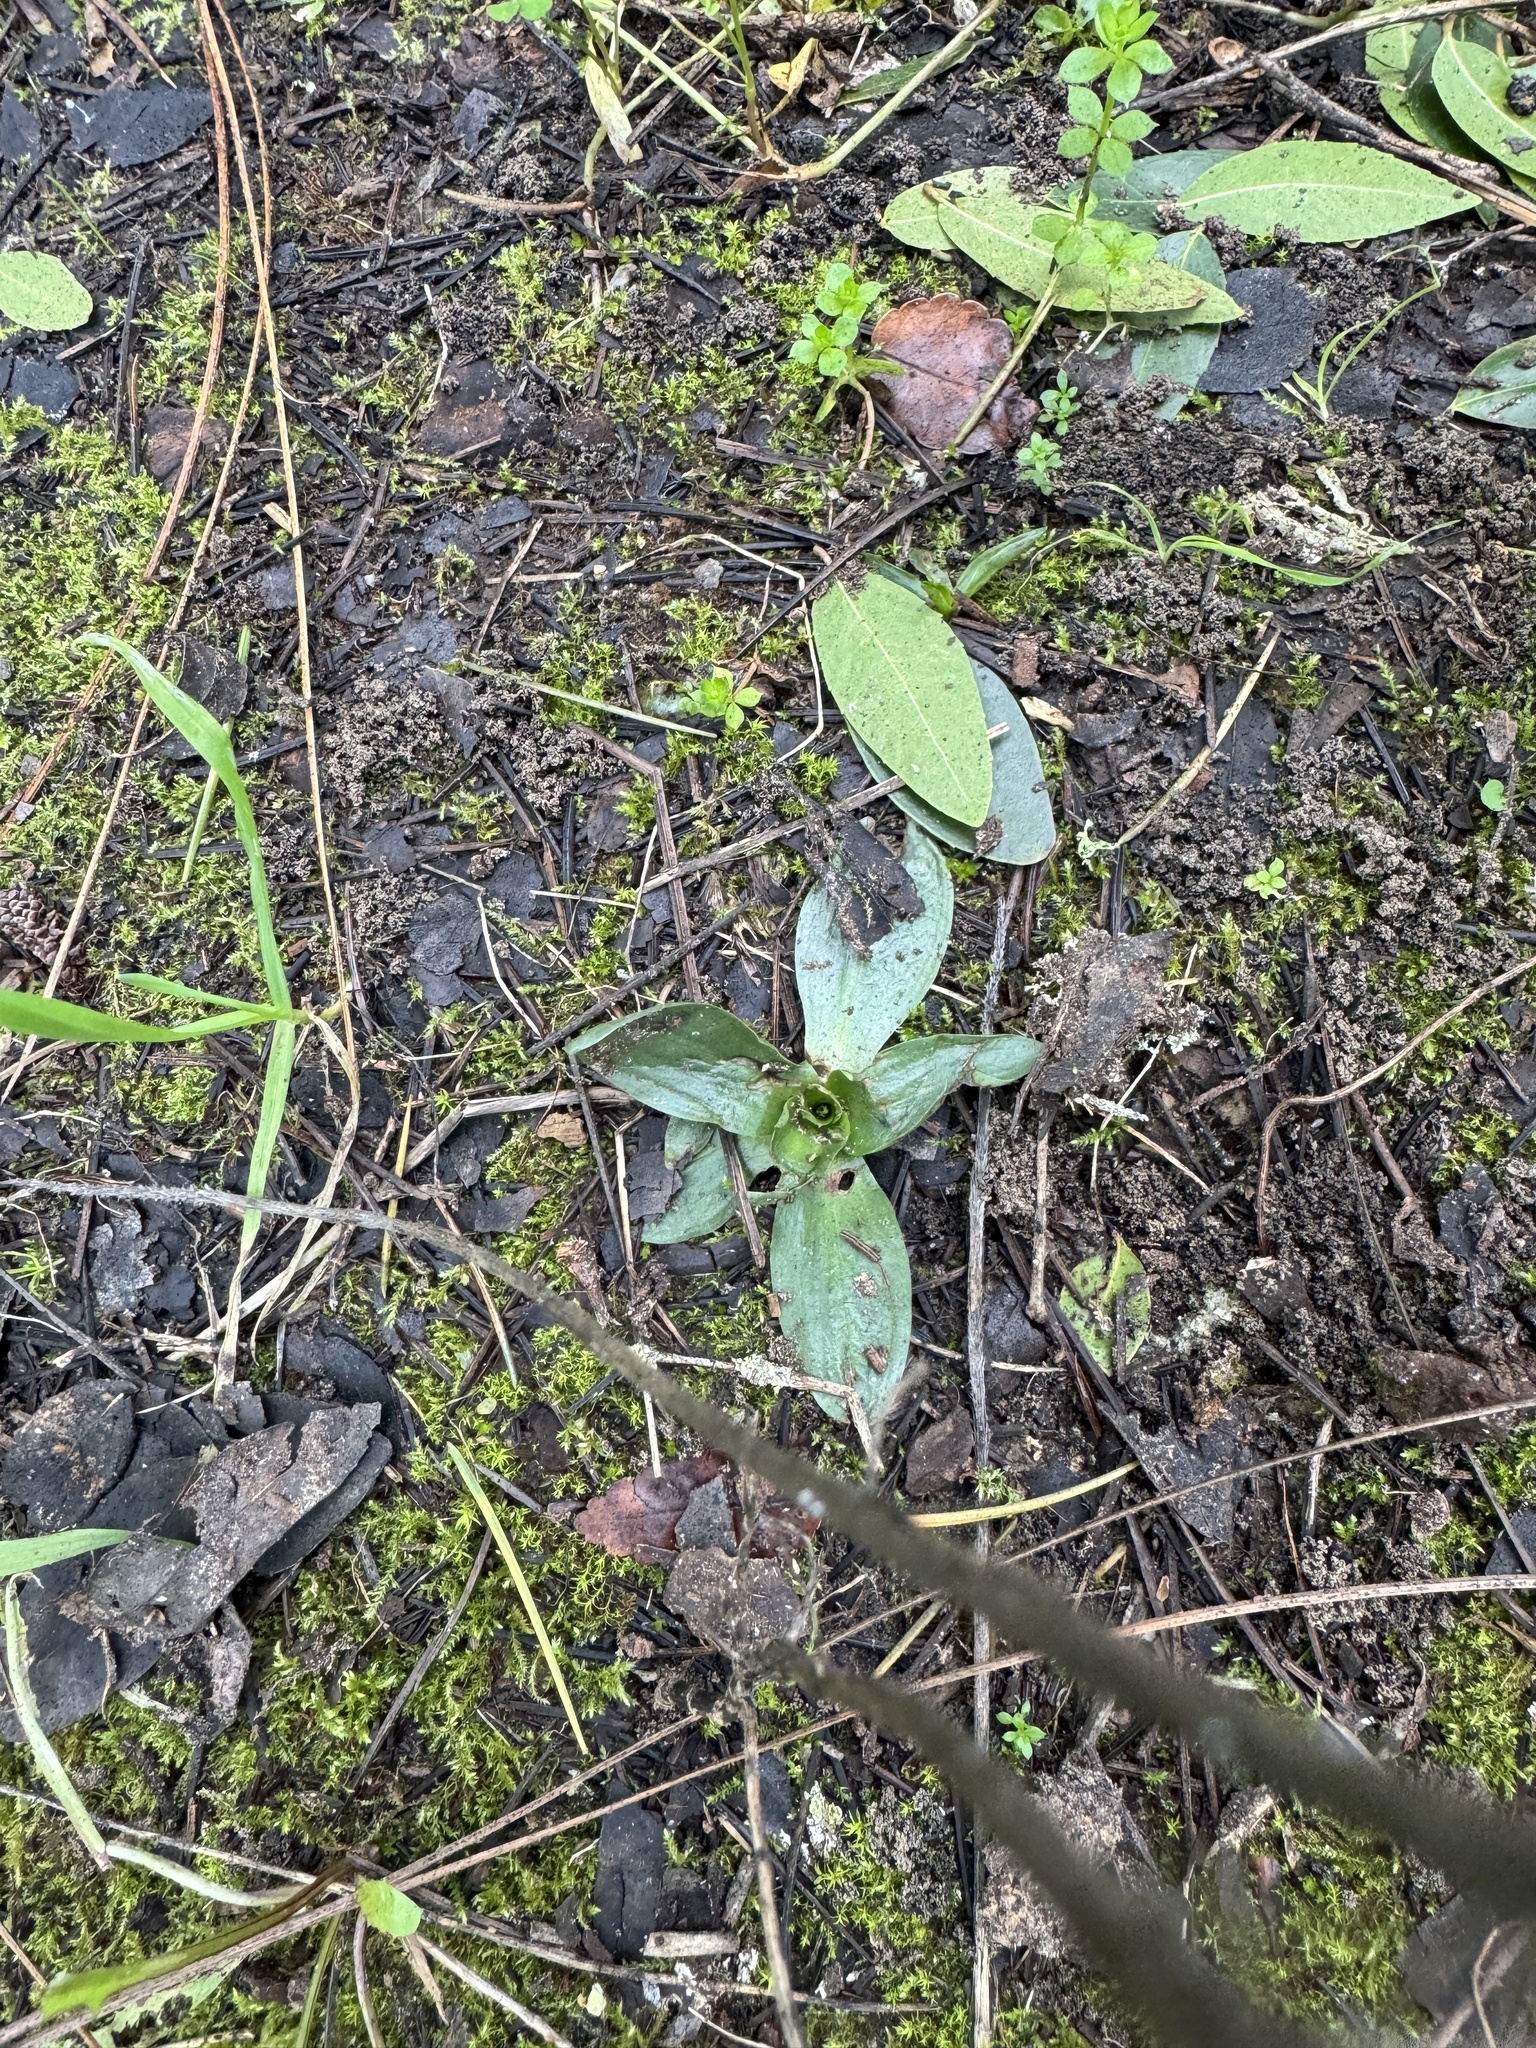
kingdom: Plantae
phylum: Tracheophyta
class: Liliopsida
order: Asparagales
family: Orchidaceae
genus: Spiranthes
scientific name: Spiranthes spiralis
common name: Autumn lady's-tresses
